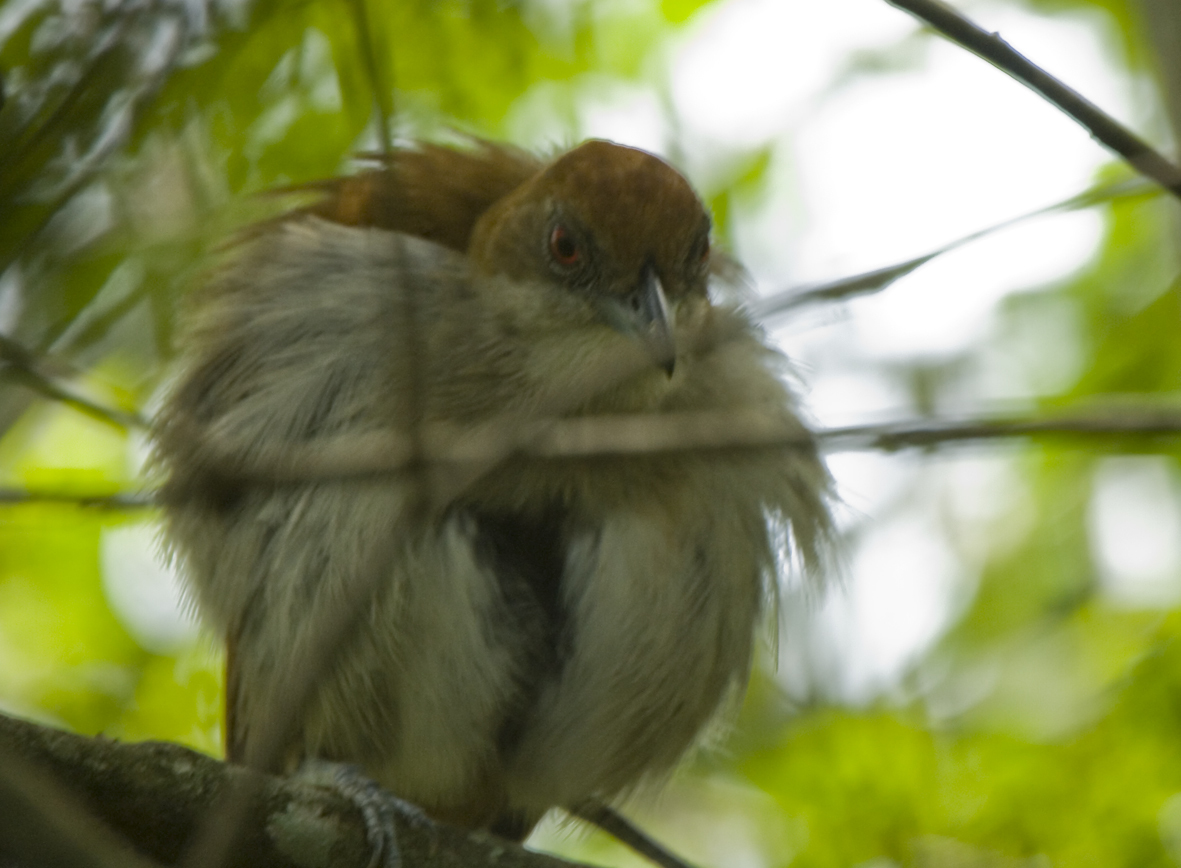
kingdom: Animalia
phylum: Chordata
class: Aves
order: Passeriformes
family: Thamnophilidae
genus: Taraba
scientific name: Taraba major
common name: Great antshrike
